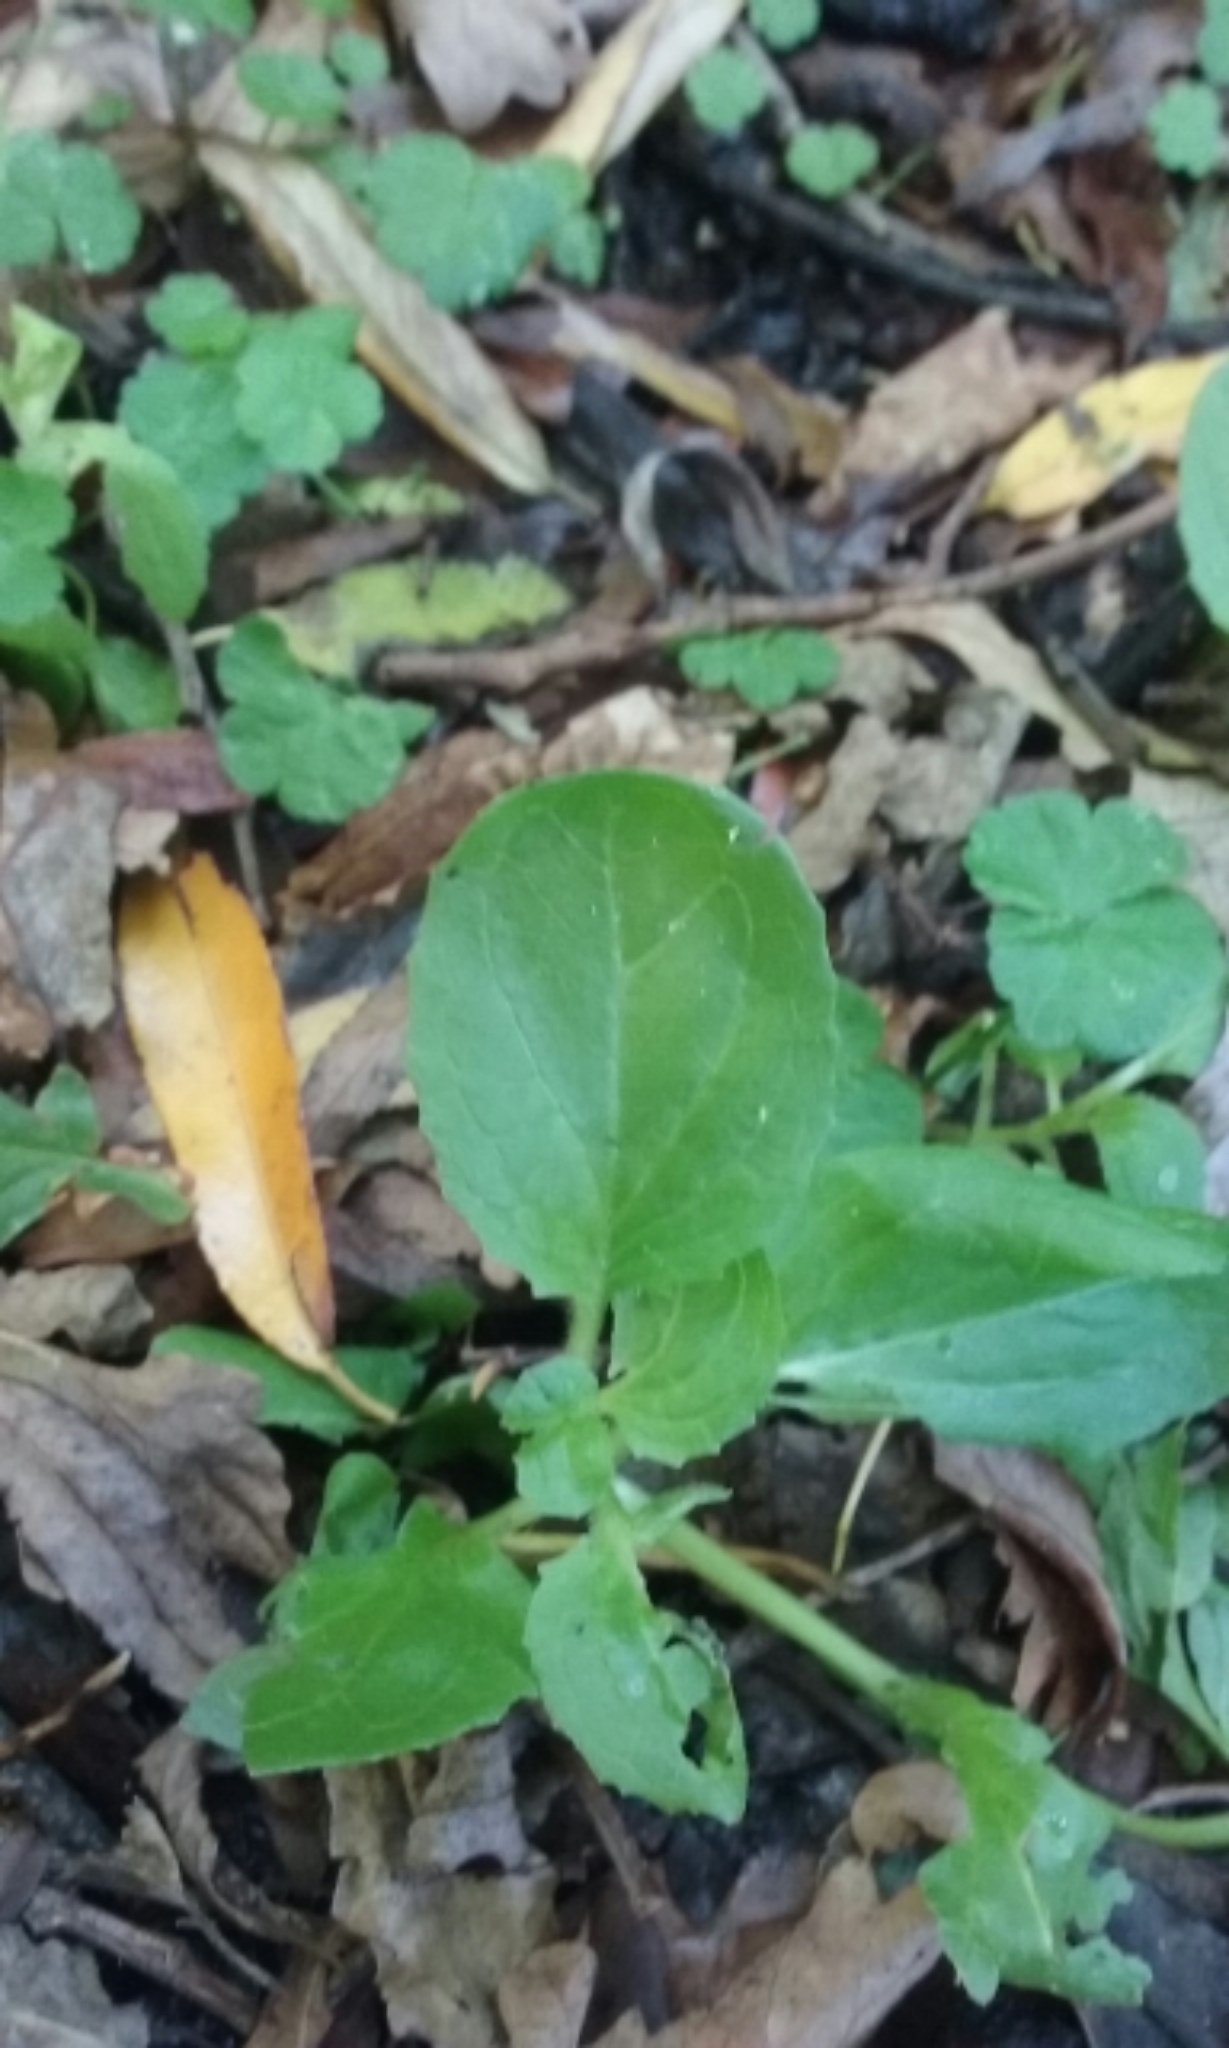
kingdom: Plantae
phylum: Tracheophyta
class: Magnoliopsida
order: Lamiales
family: Phrymaceae
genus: Erythranthe
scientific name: Erythranthe guttata
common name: Monkeyflower
